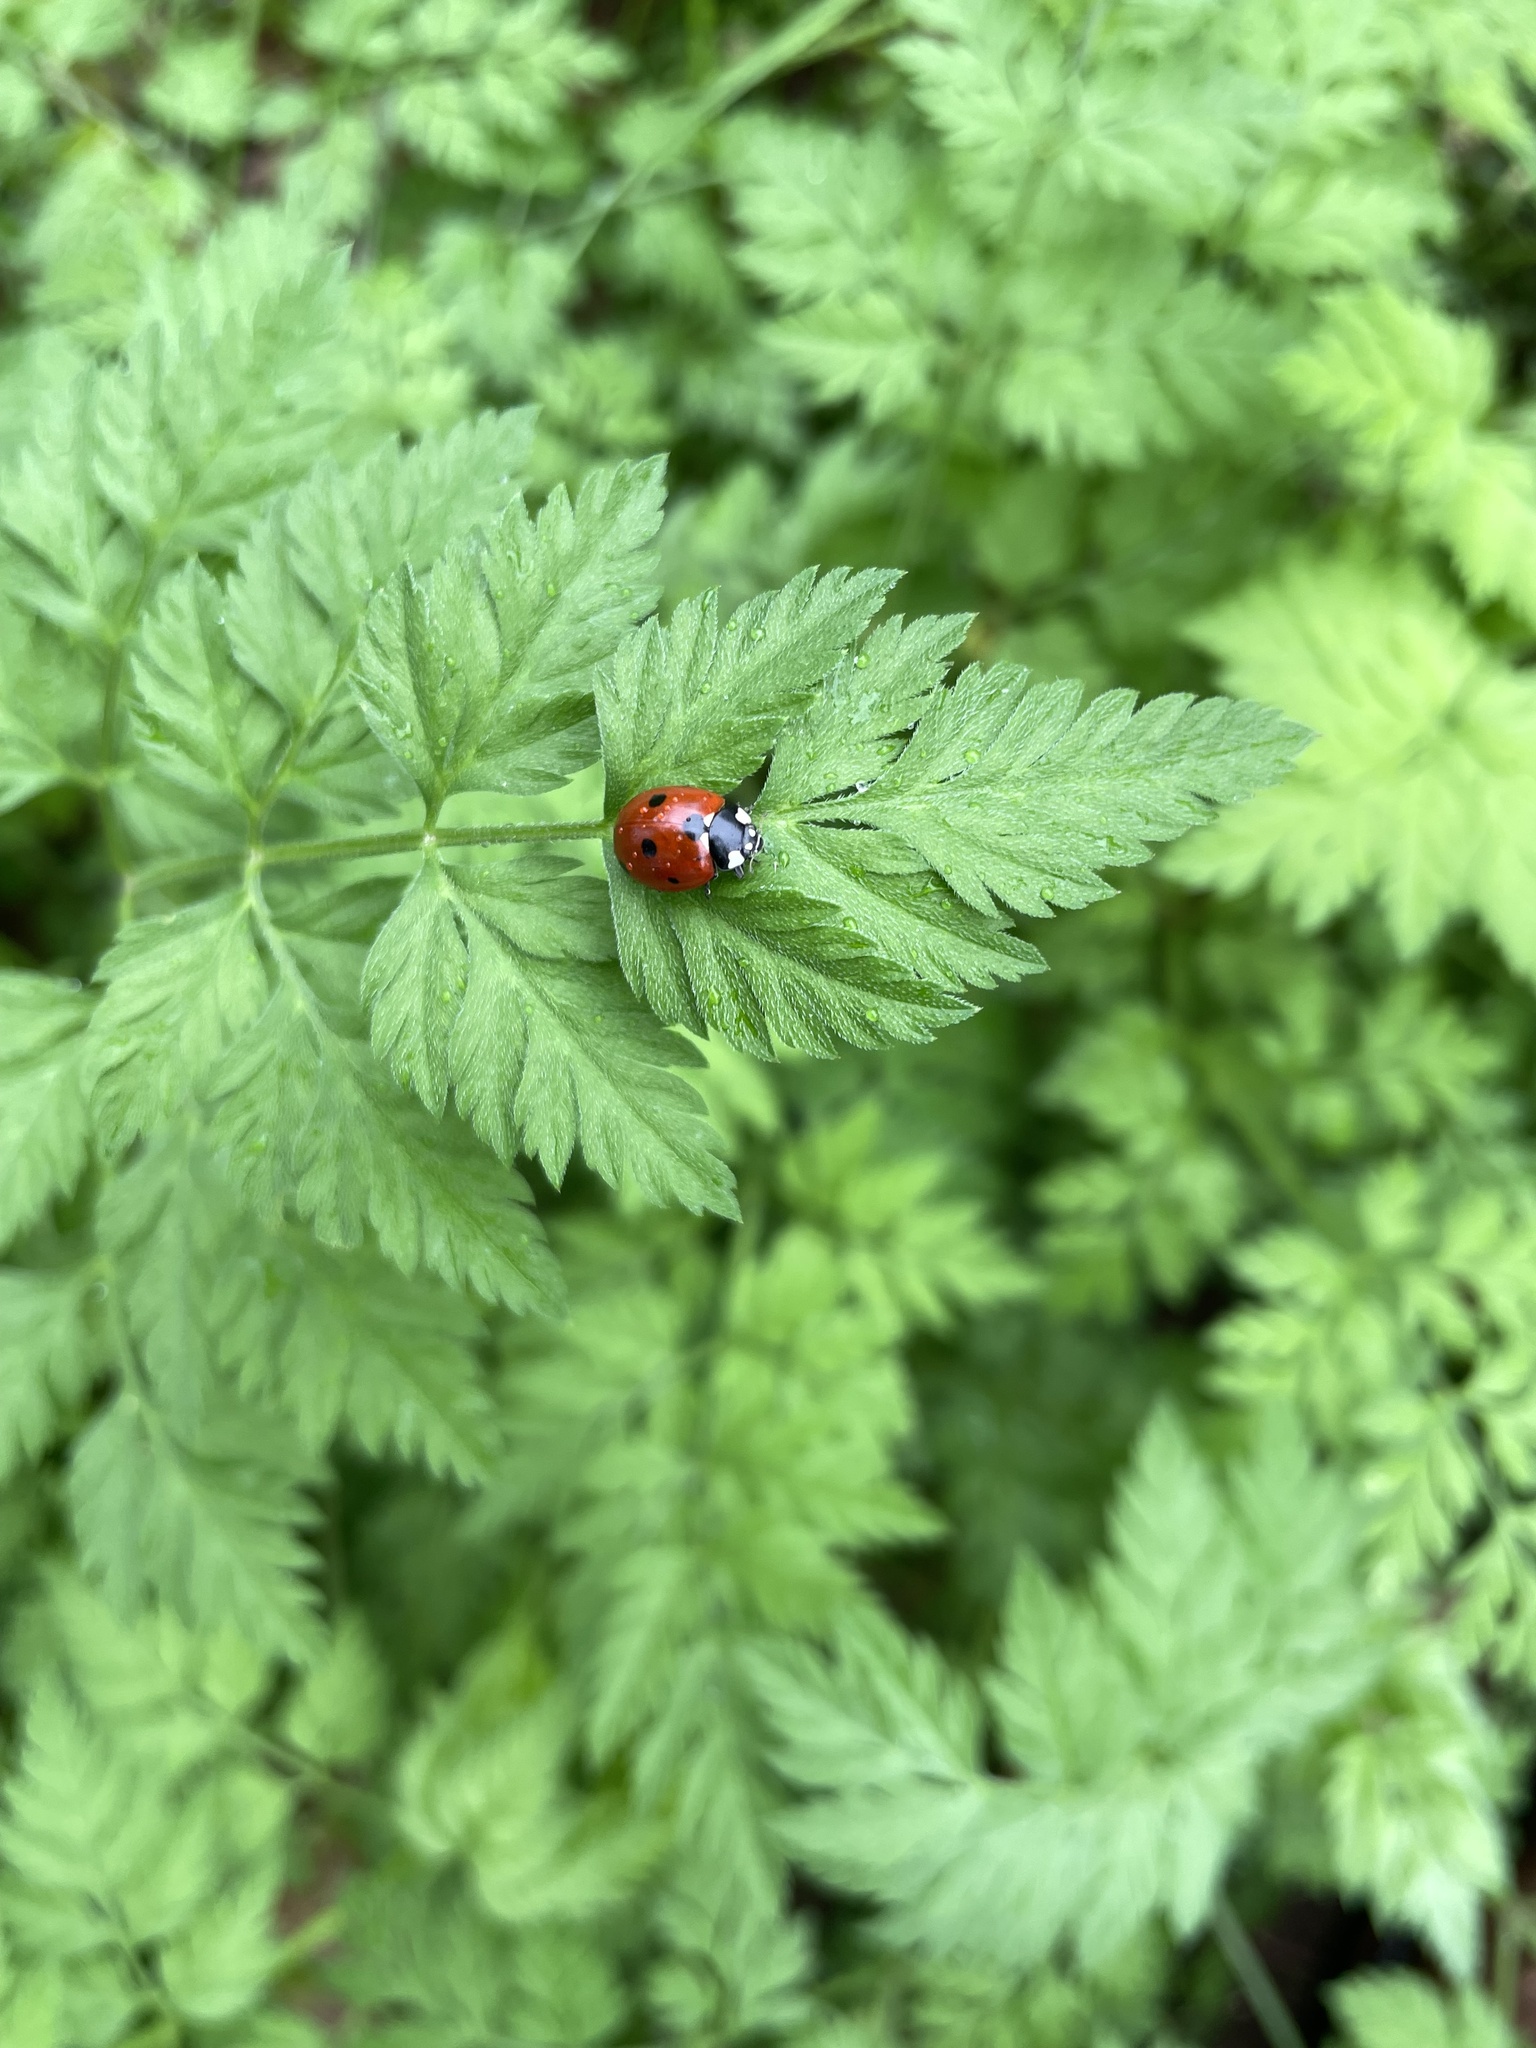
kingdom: Animalia
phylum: Arthropoda
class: Insecta
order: Coleoptera
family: Coccinellidae
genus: Coccinella
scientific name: Coccinella septempunctata
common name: Sevenspotted lady beetle
